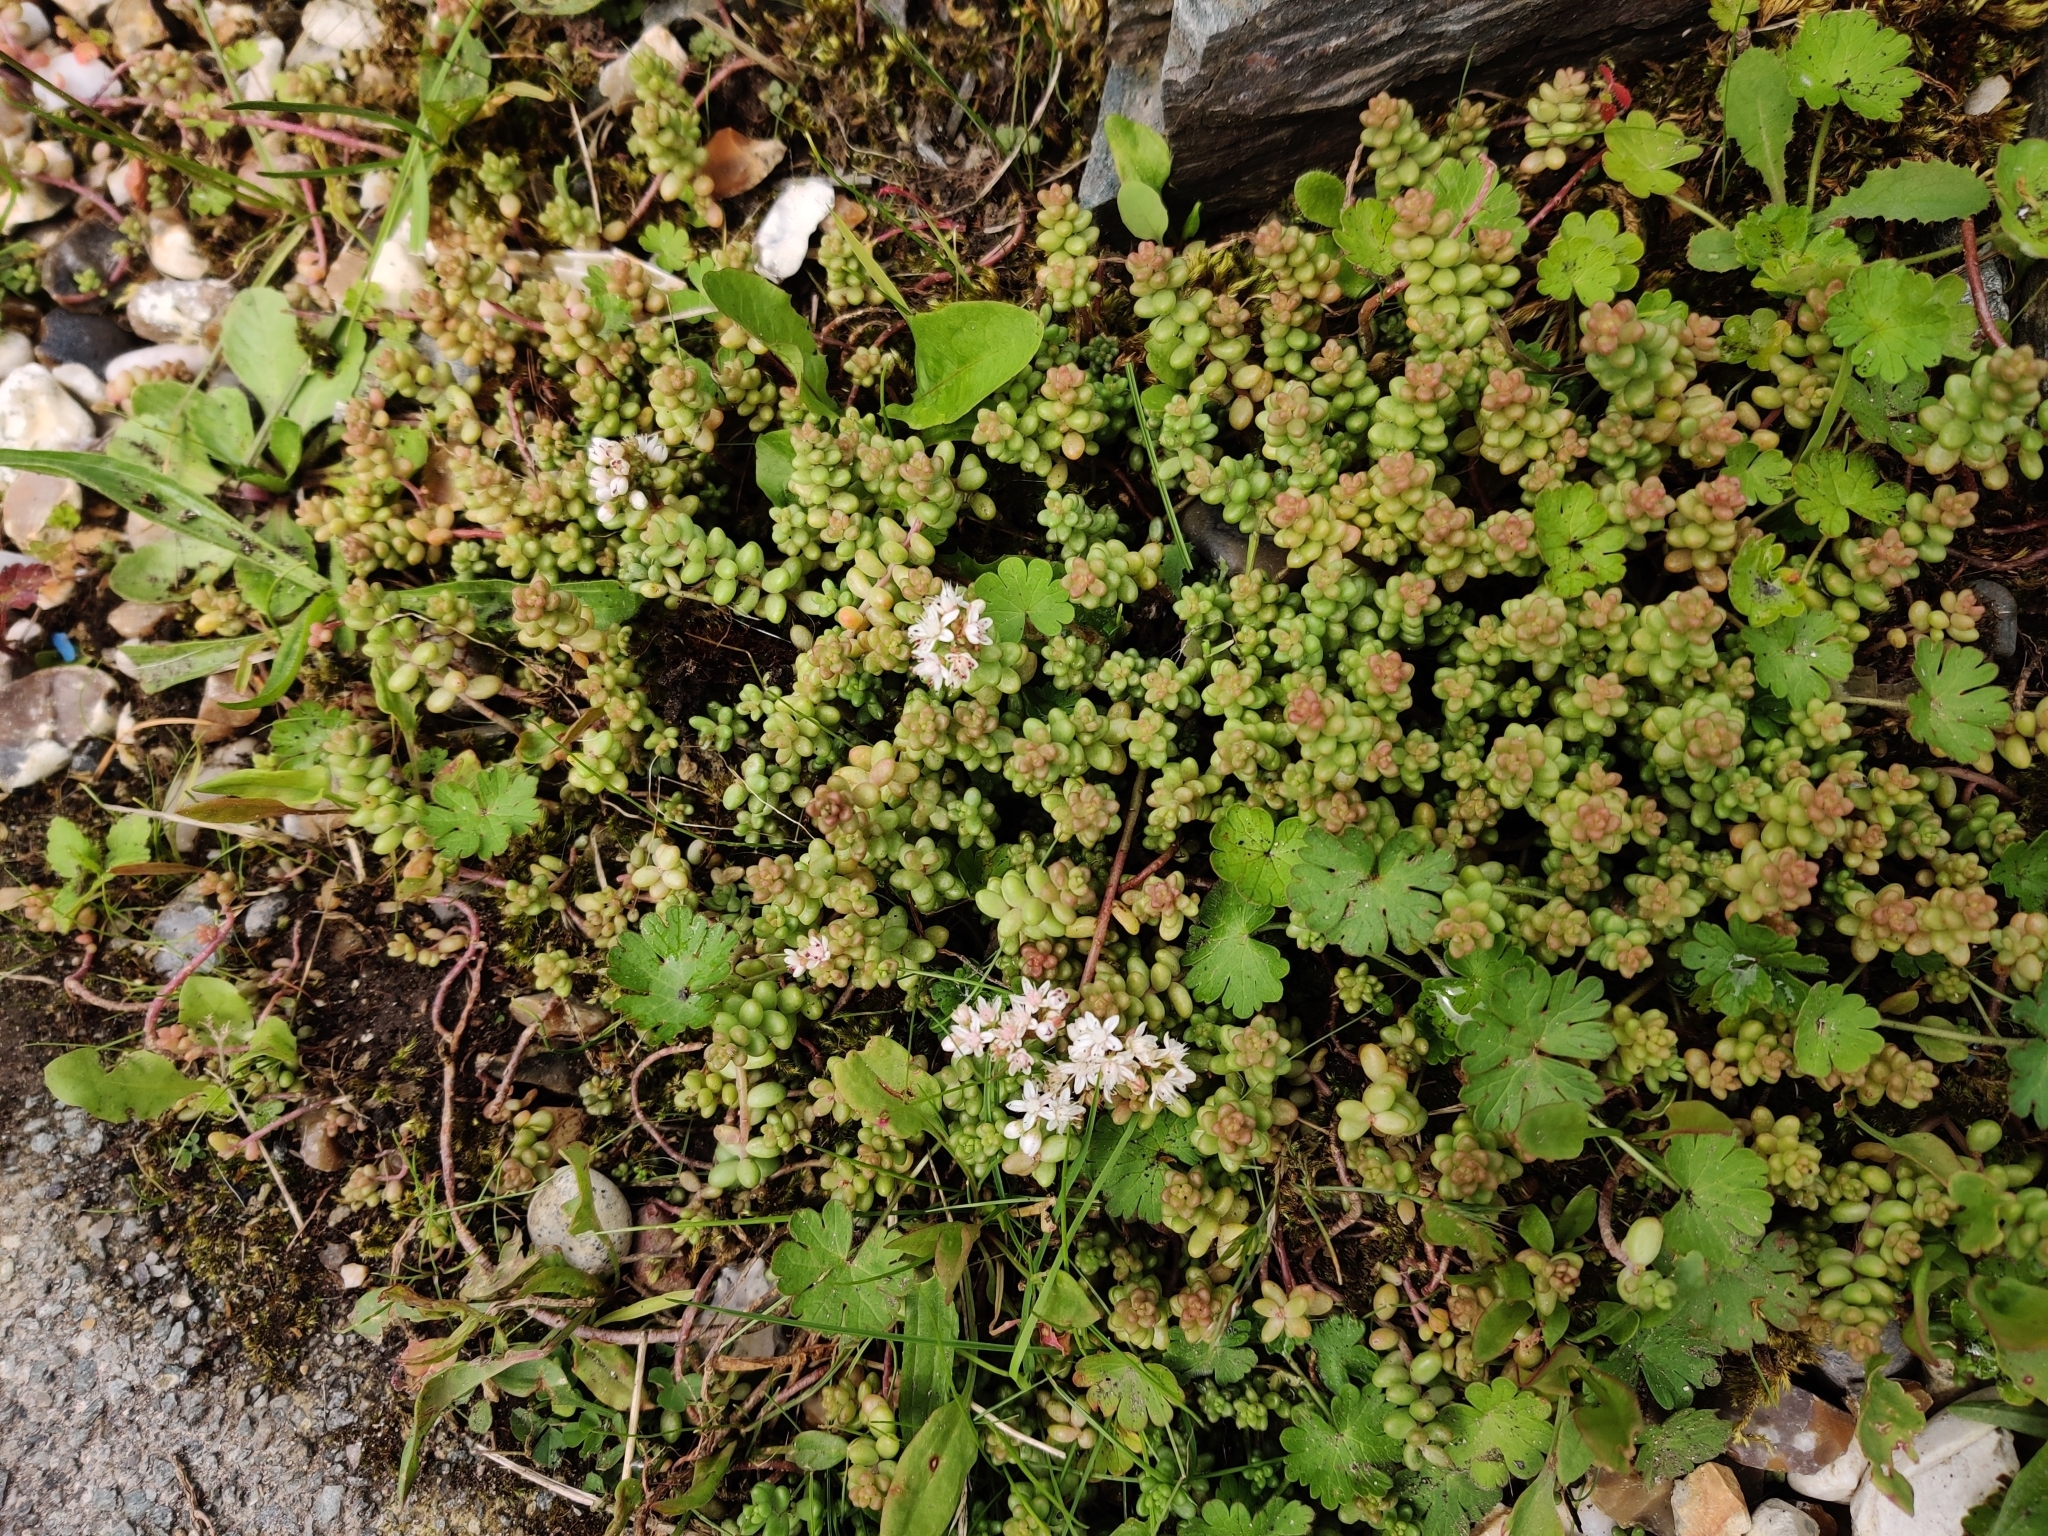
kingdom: Plantae
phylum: Tracheophyta
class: Magnoliopsida
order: Saxifragales
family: Crassulaceae
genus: Sedum
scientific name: Sedum album
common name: White stonecrop
